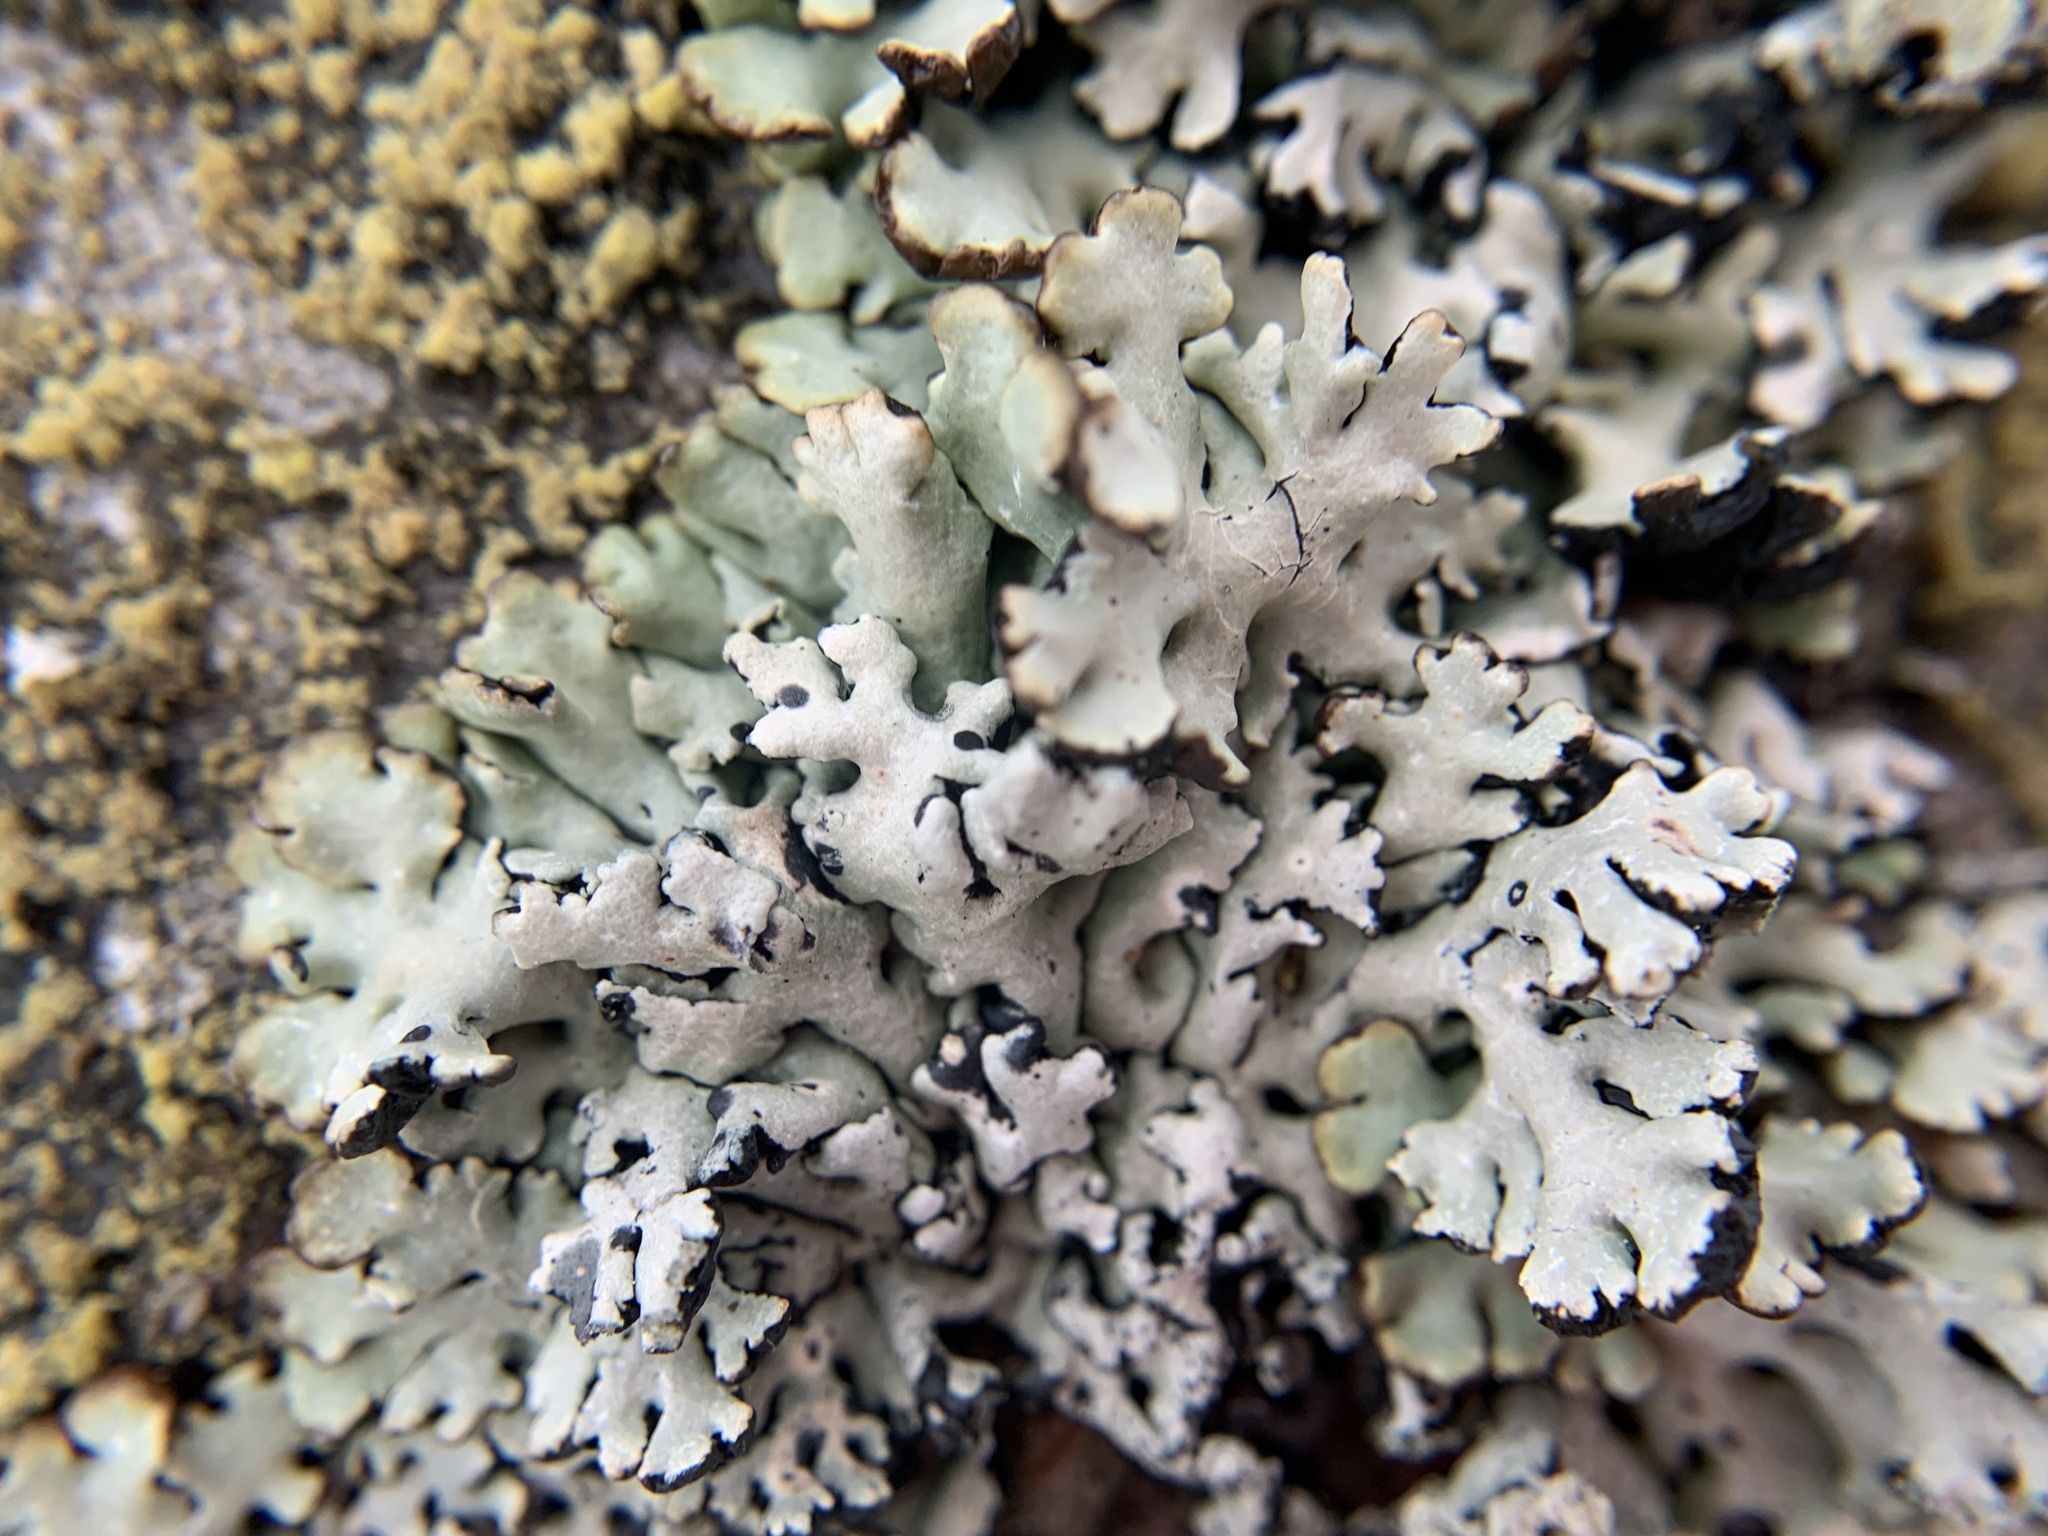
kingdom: Fungi
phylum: Ascomycota
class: Lecanoromycetes
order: Lecanorales
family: Parmeliaceae
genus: Hypogymnia
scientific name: Hypogymnia physodes
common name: Dark crottle
